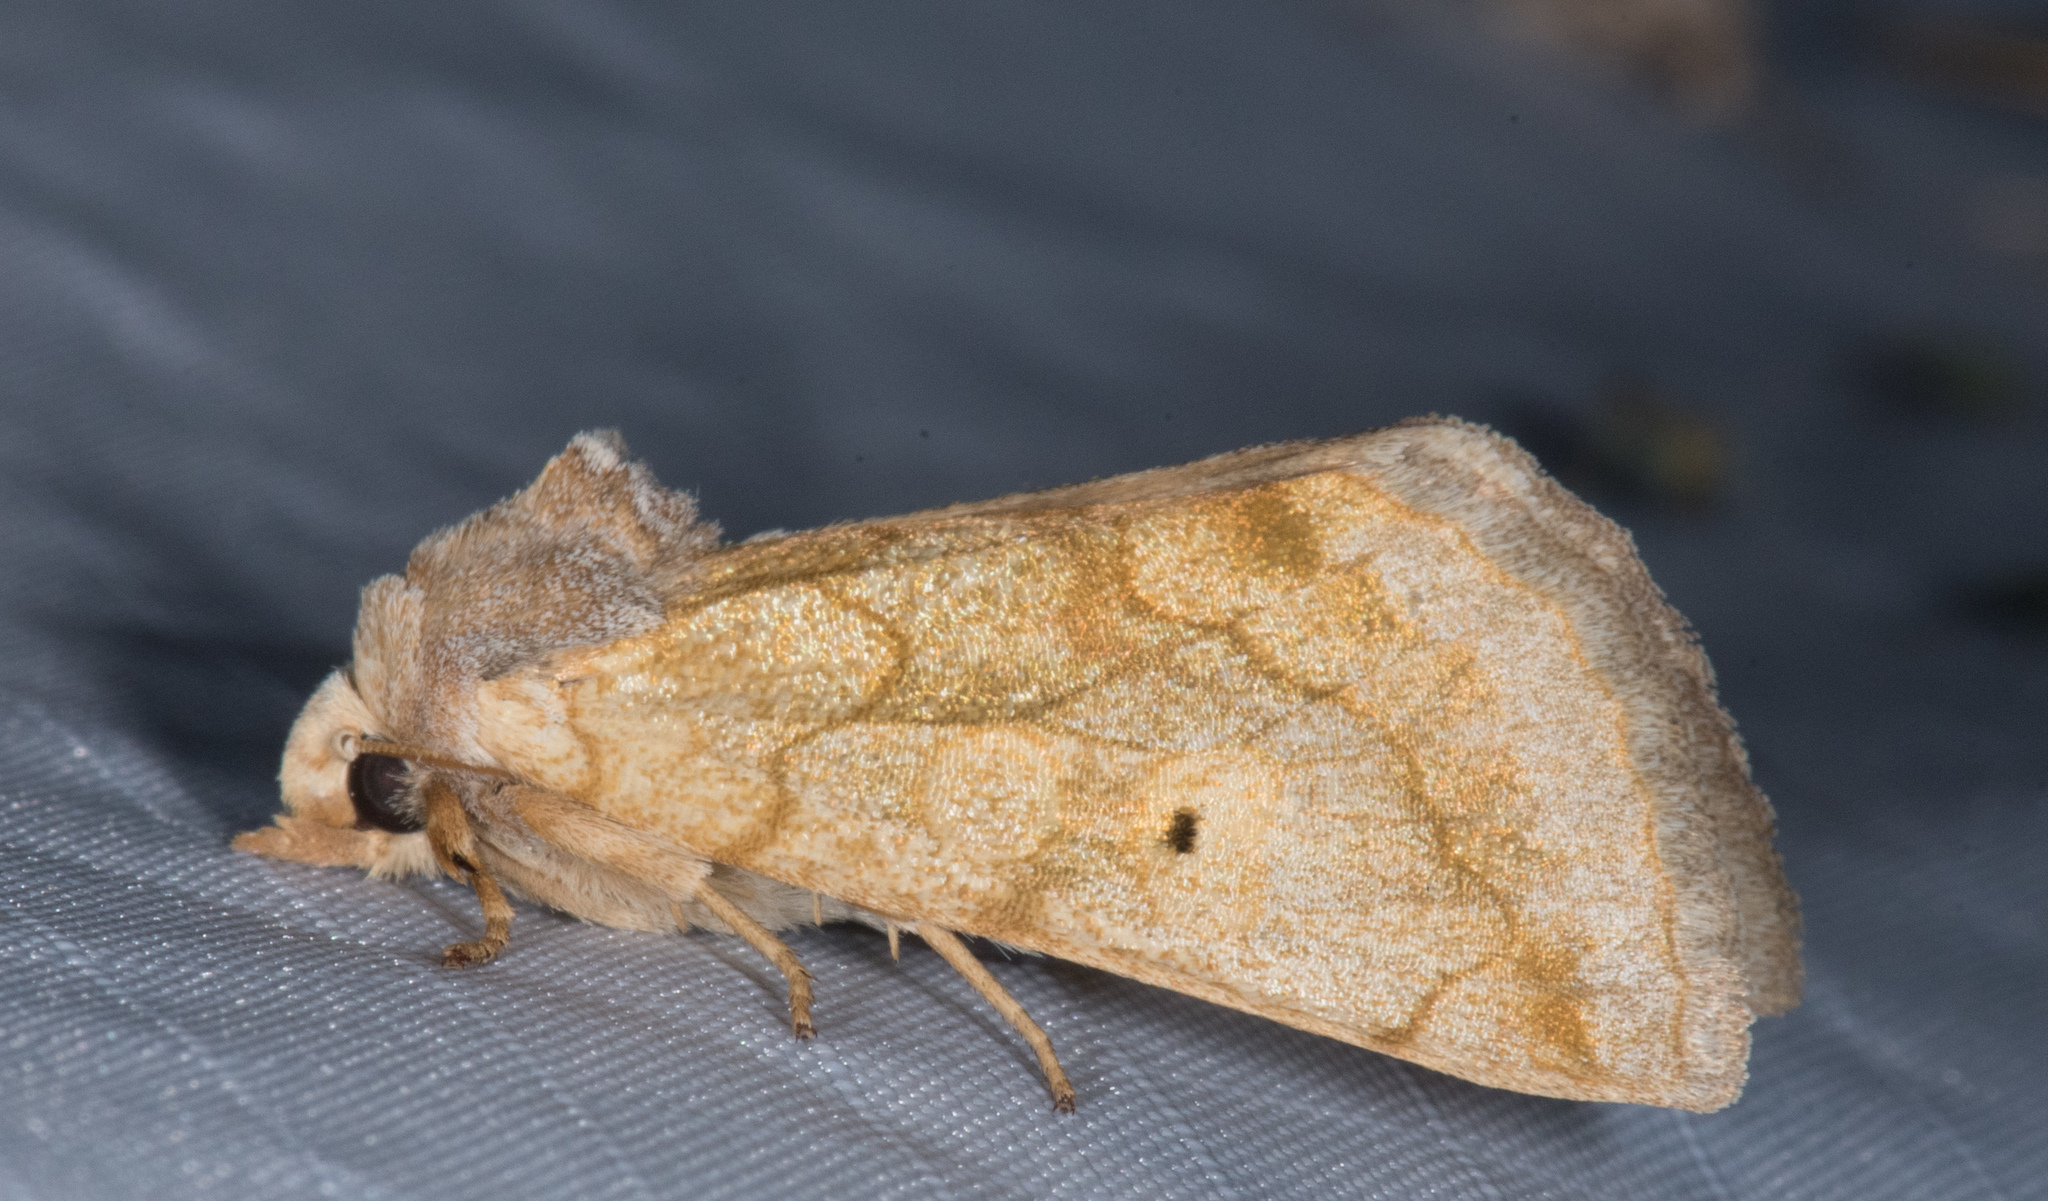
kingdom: Animalia
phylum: Arthropoda
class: Insecta
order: Lepidoptera
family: Noctuidae
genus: Basilodes
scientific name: Basilodes chrysopis
